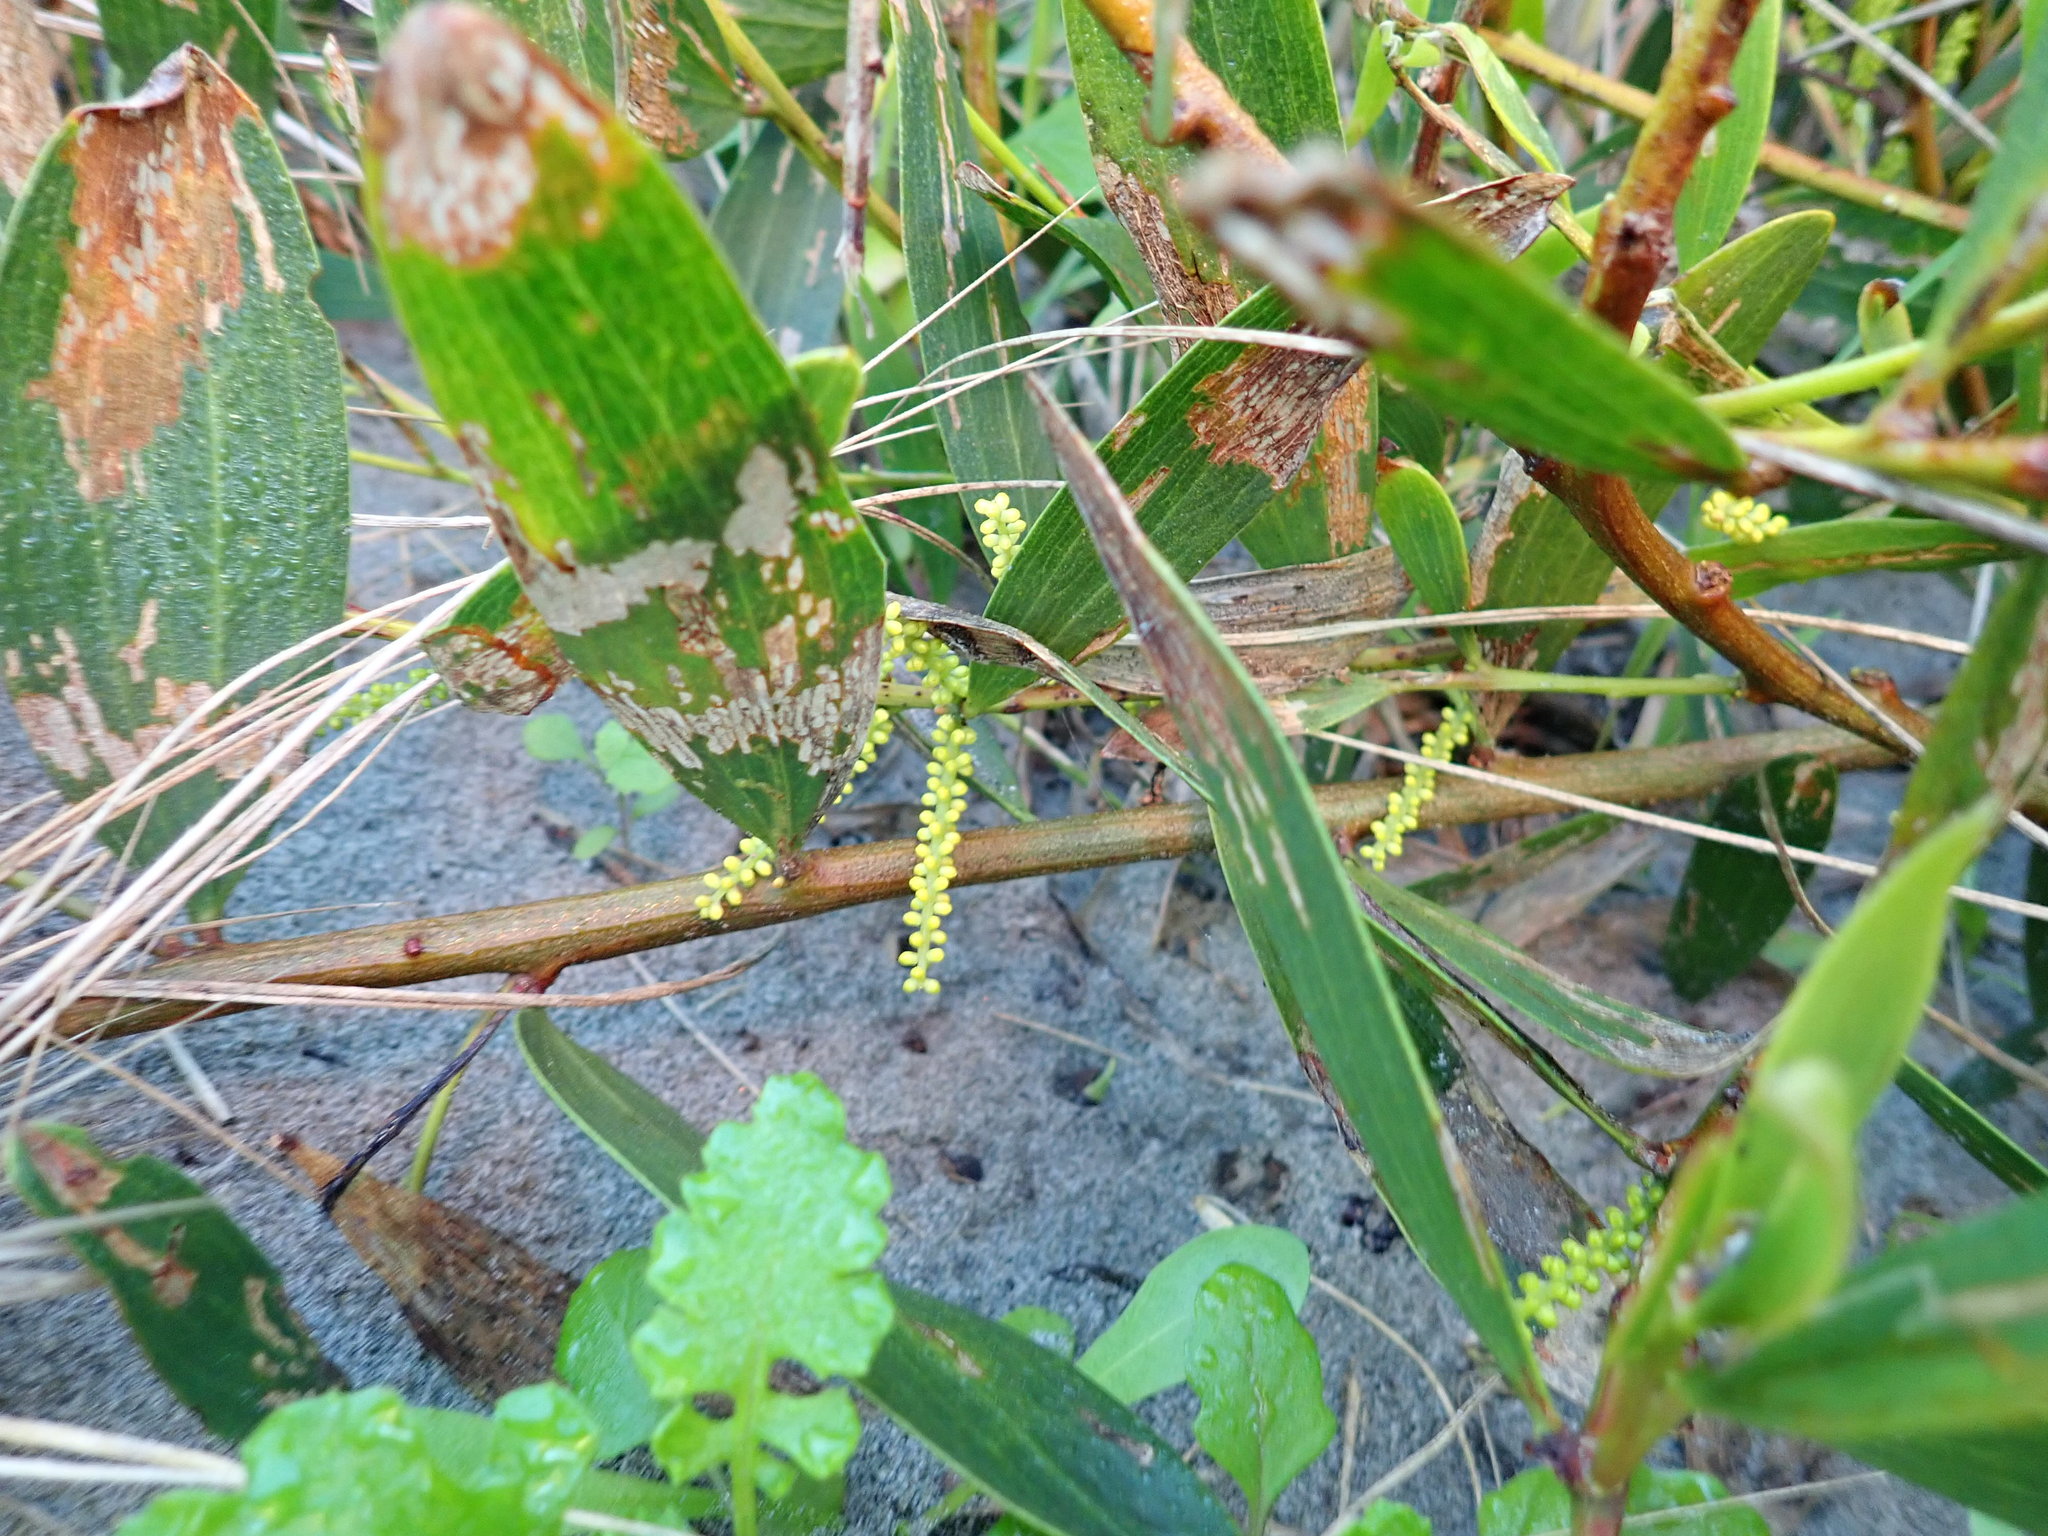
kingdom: Plantae
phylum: Tracheophyta
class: Magnoliopsida
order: Fabales
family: Fabaceae
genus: Acacia
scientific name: Acacia longifolia
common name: Sydney golden wattle
